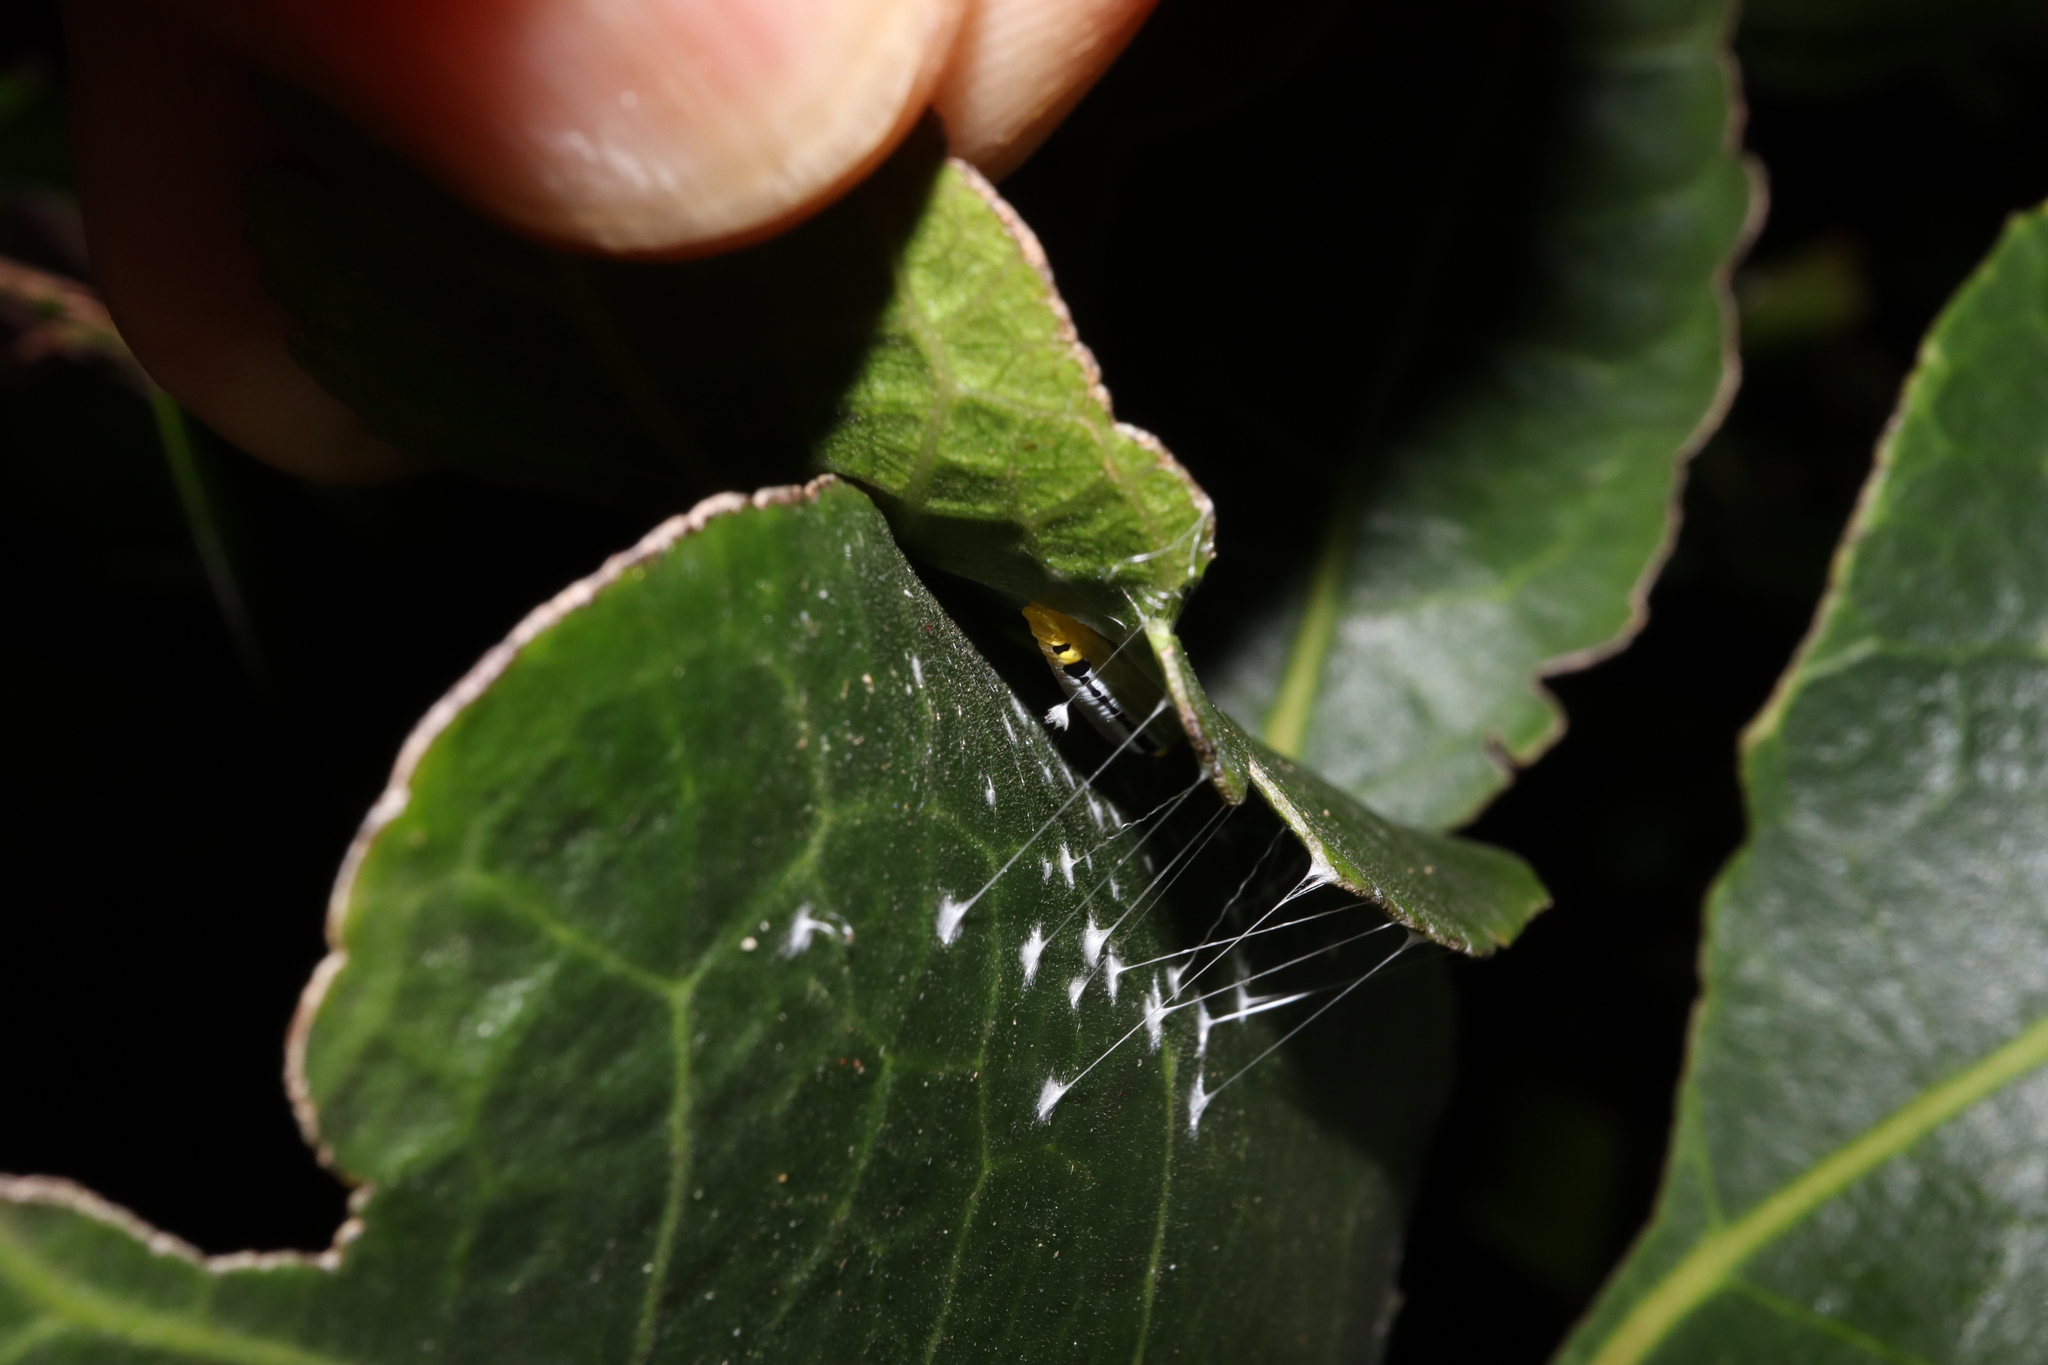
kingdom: Animalia
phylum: Arthropoda
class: Insecta
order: Lepidoptera
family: Hesperiidae
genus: Euschemon
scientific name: Euschemon rafflesia
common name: Regent skipper
